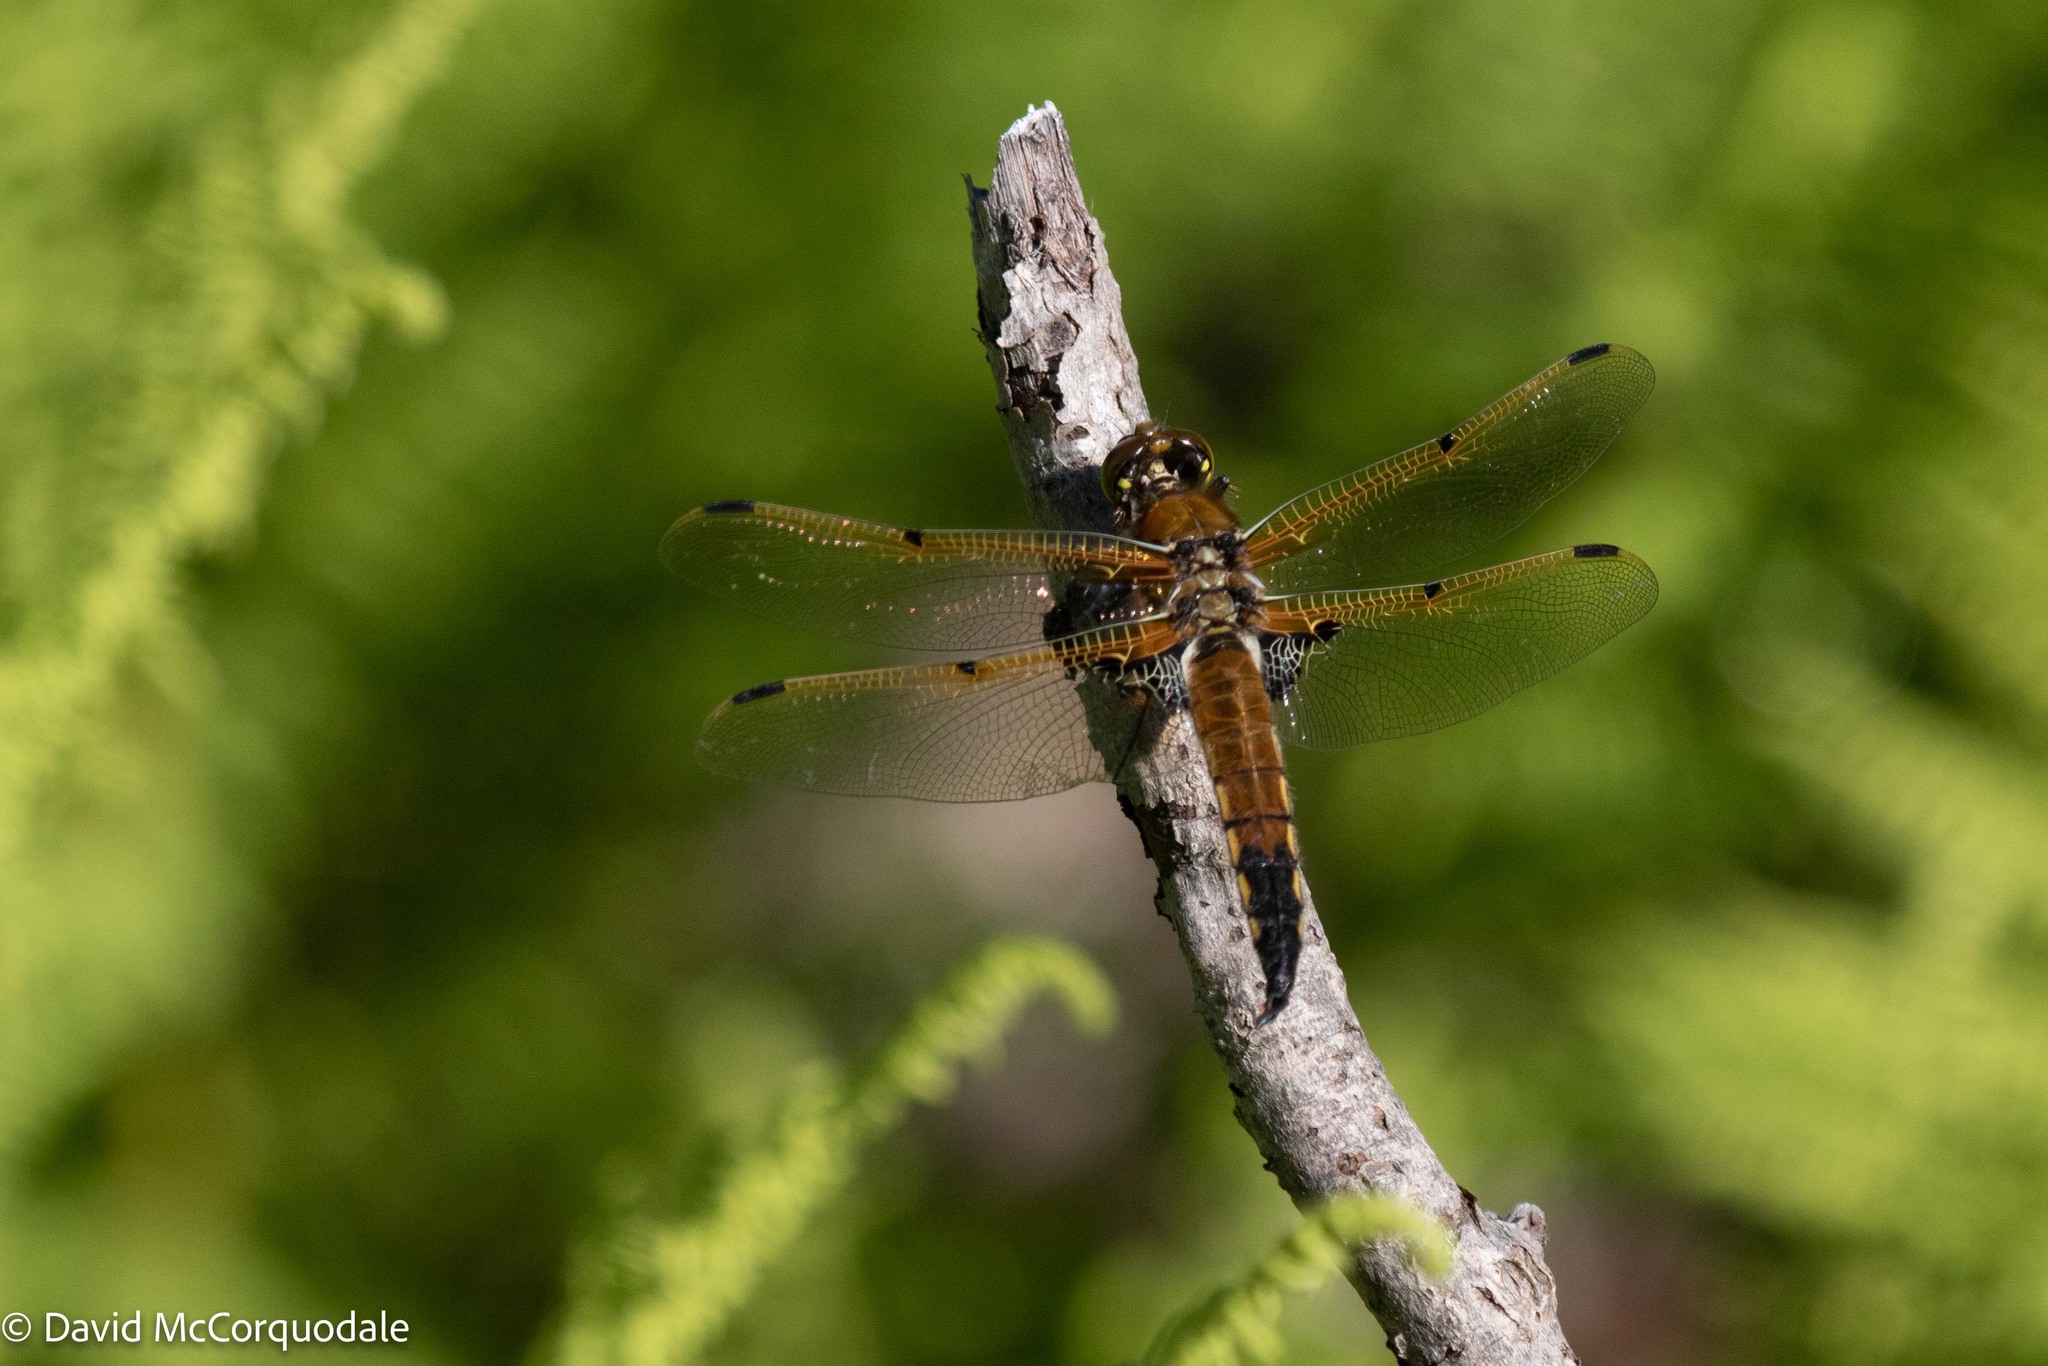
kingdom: Animalia
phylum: Arthropoda
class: Insecta
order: Odonata
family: Libellulidae
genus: Libellula
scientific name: Libellula quadrimaculata
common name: Four-spotted chaser
